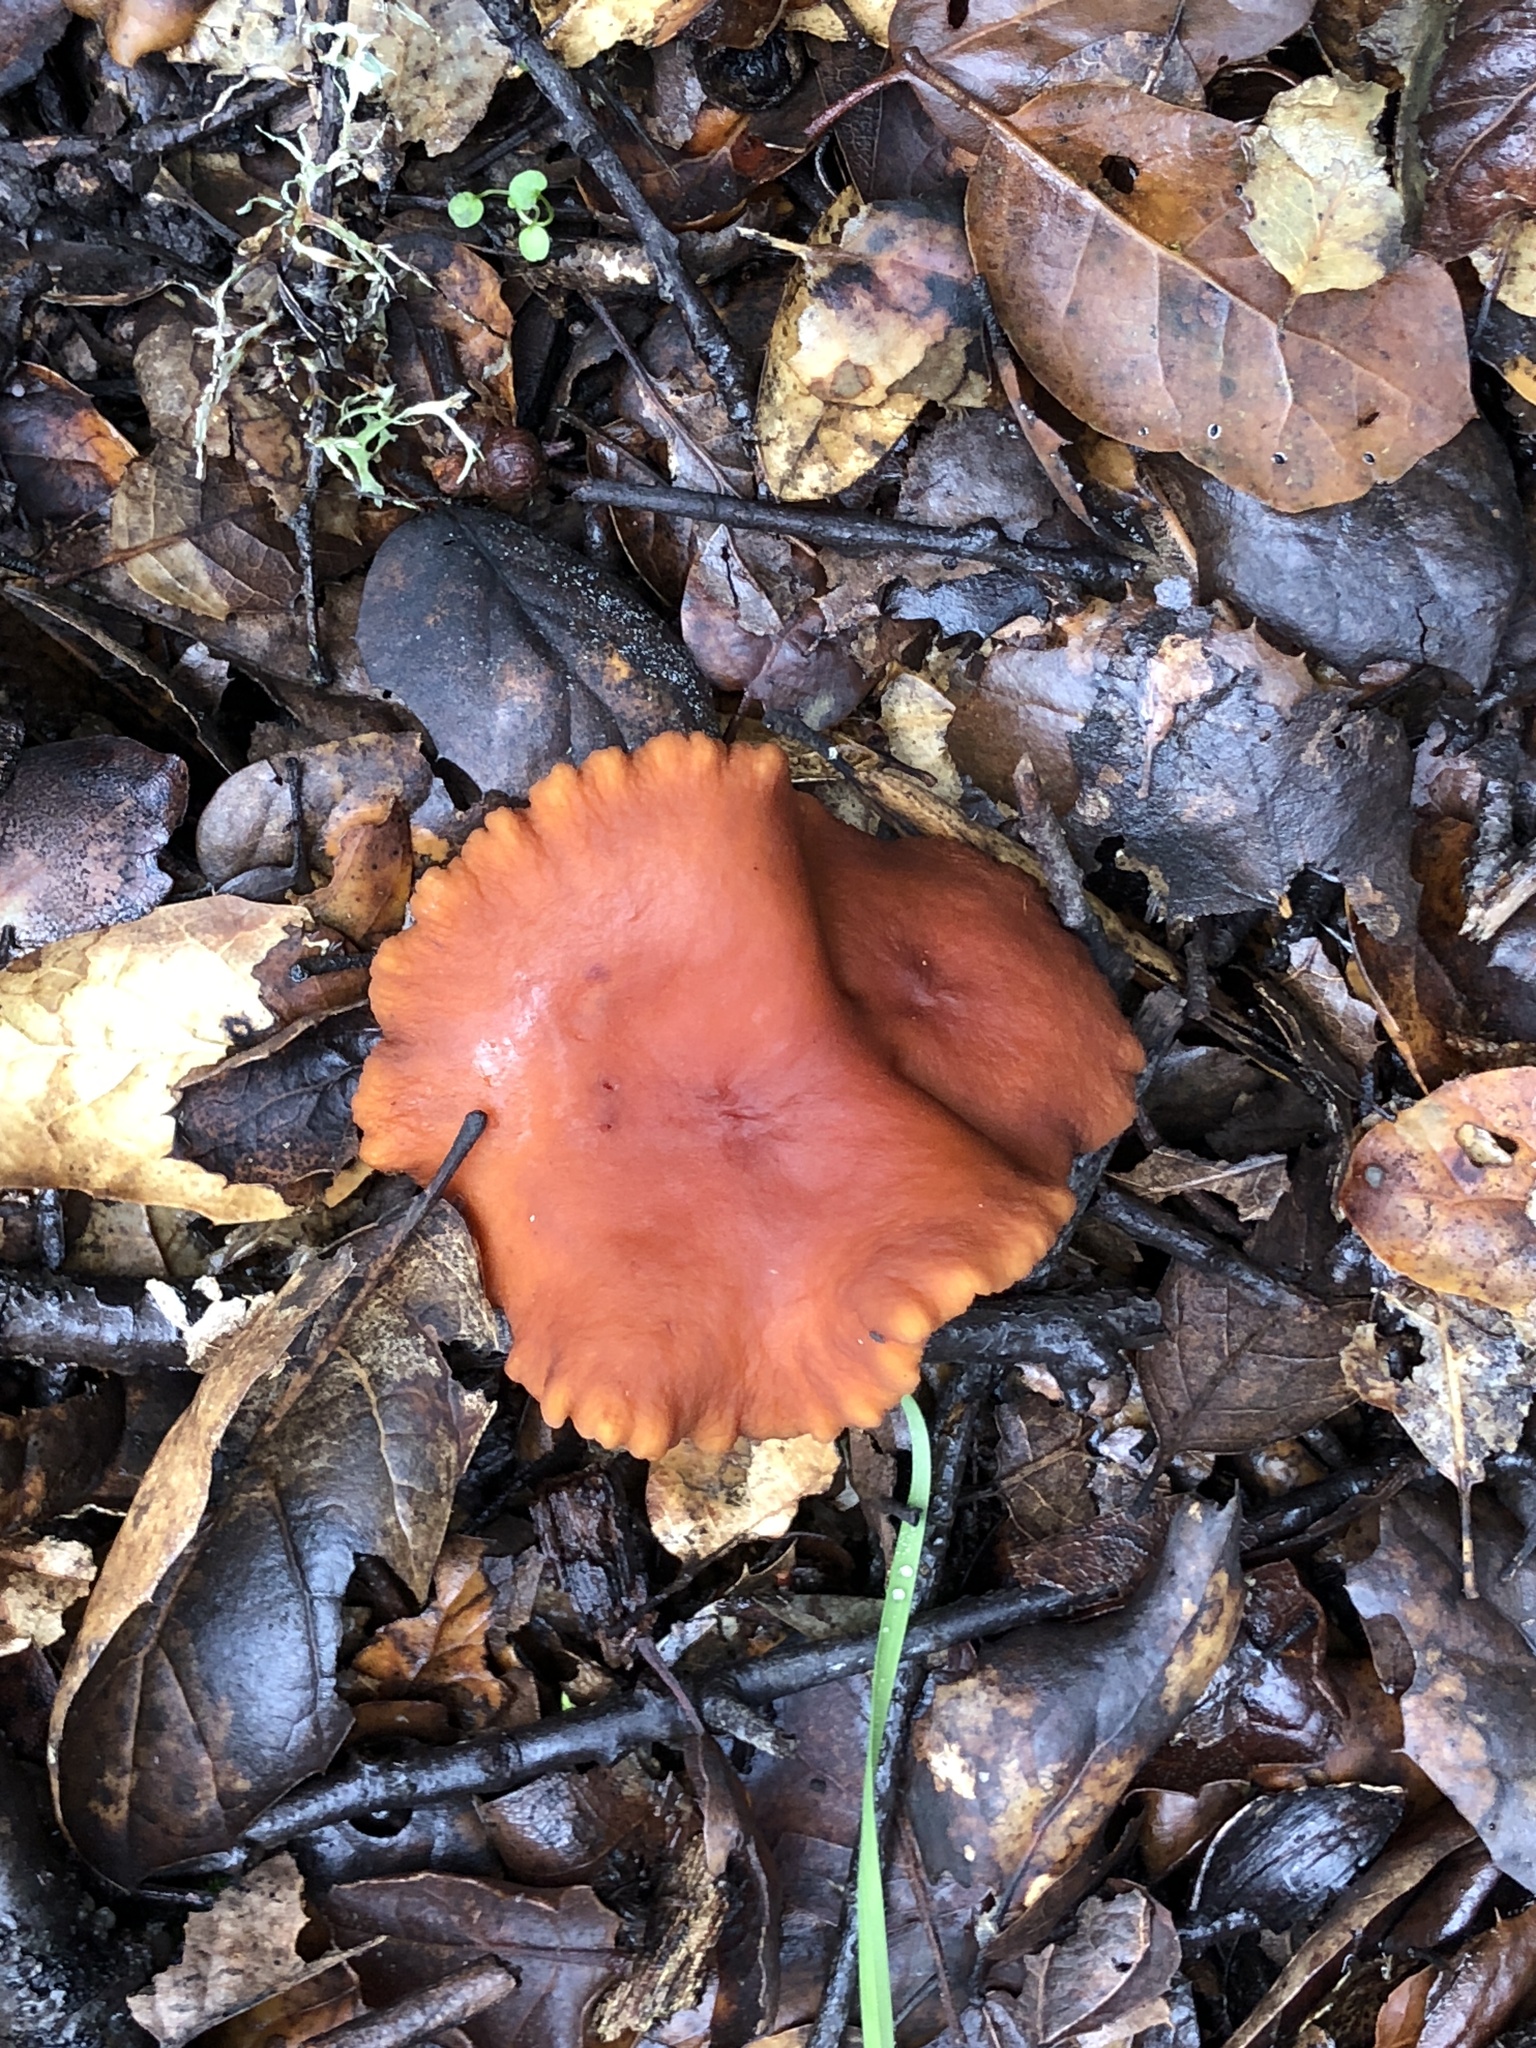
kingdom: Fungi
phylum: Basidiomycota
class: Agaricomycetes
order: Russulales
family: Russulaceae
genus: Lactarius
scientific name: Lactarius rubidus
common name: Candy cap
